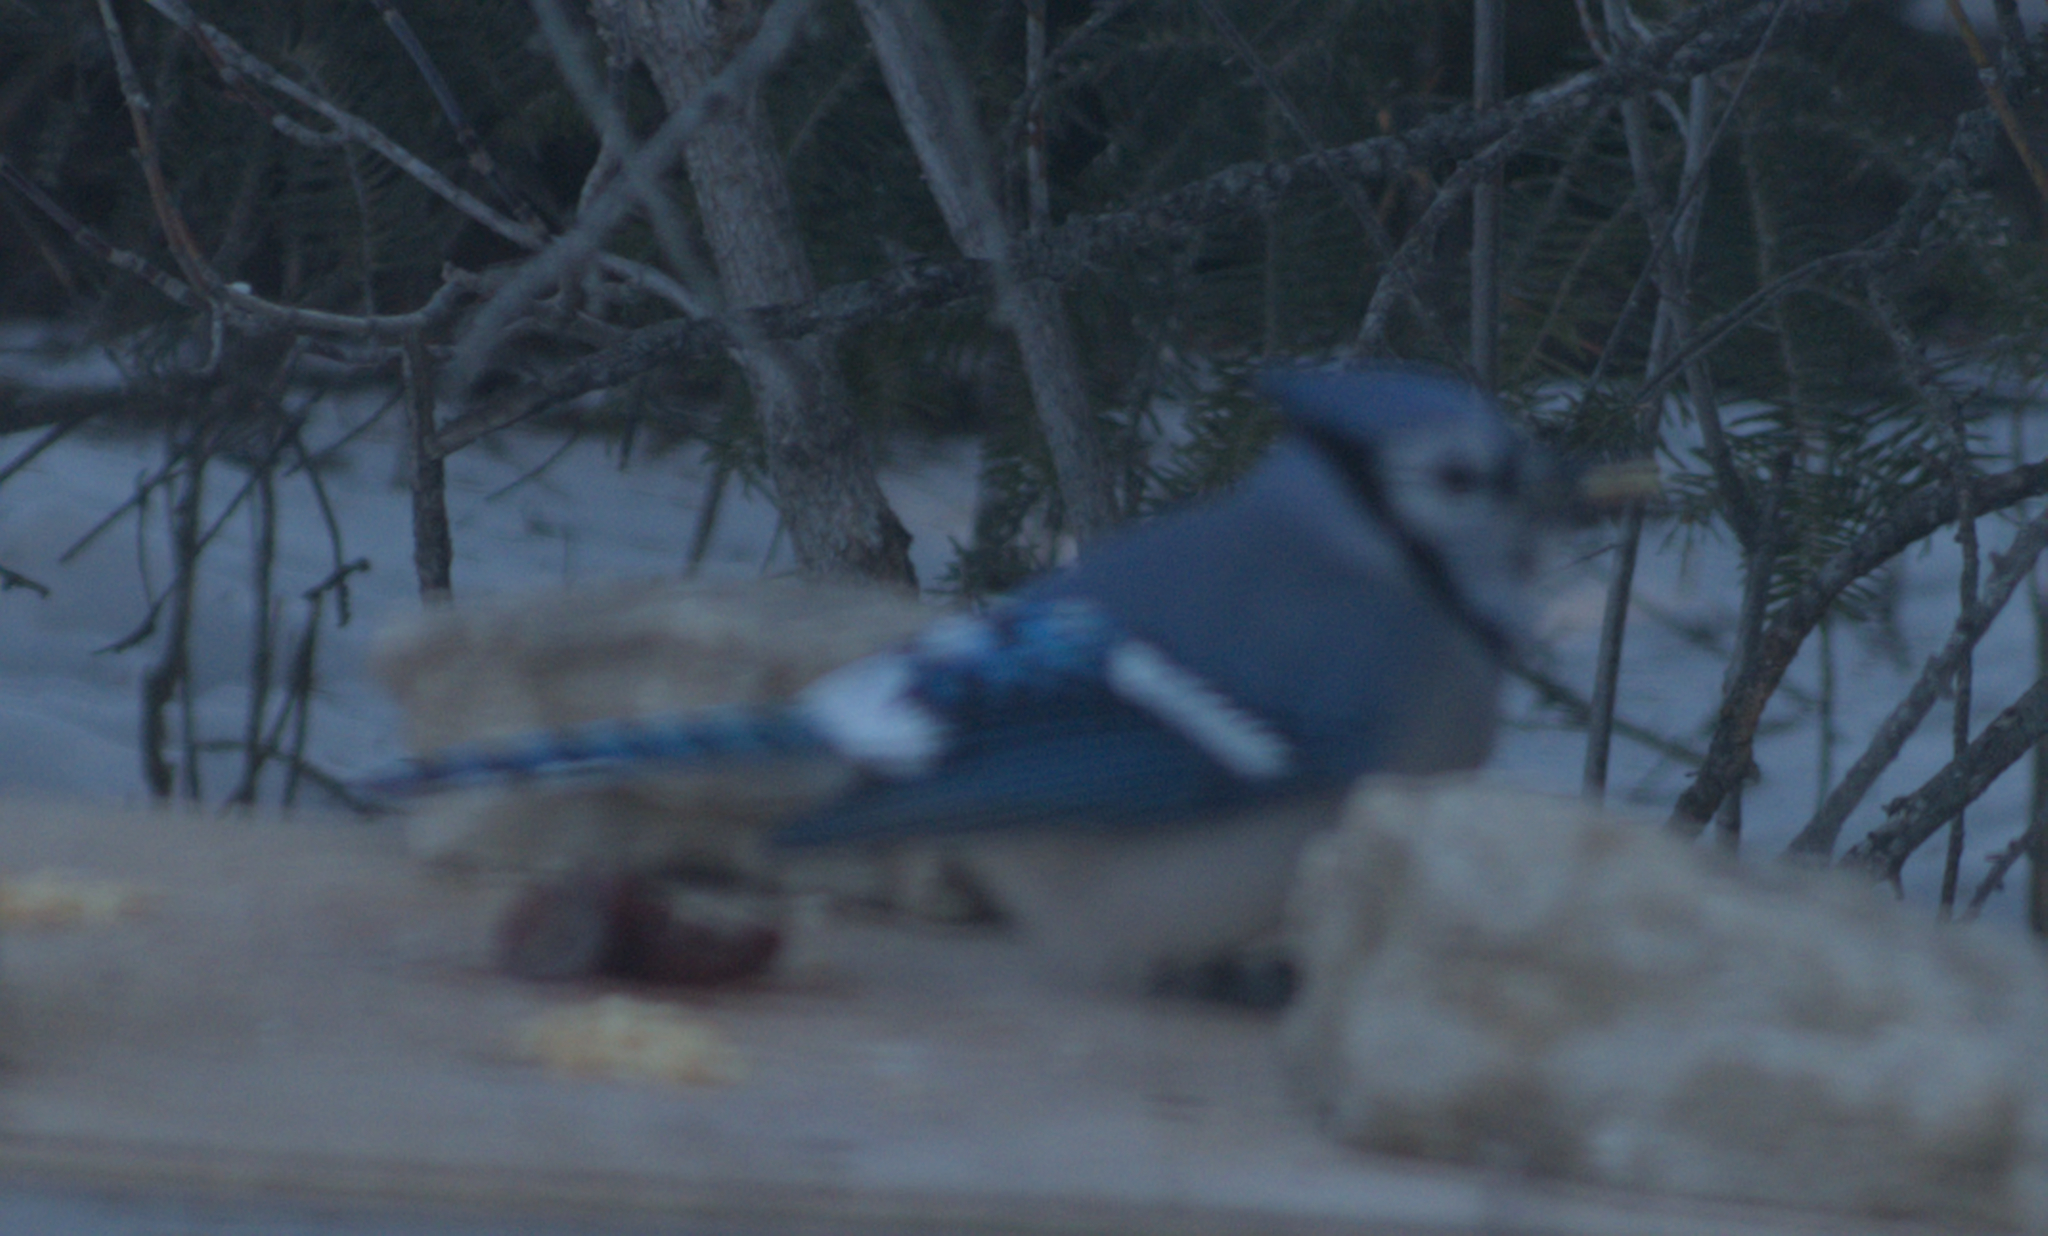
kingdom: Animalia
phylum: Chordata
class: Aves
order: Passeriformes
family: Corvidae
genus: Cyanocitta
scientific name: Cyanocitta cristata
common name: Blue jay
